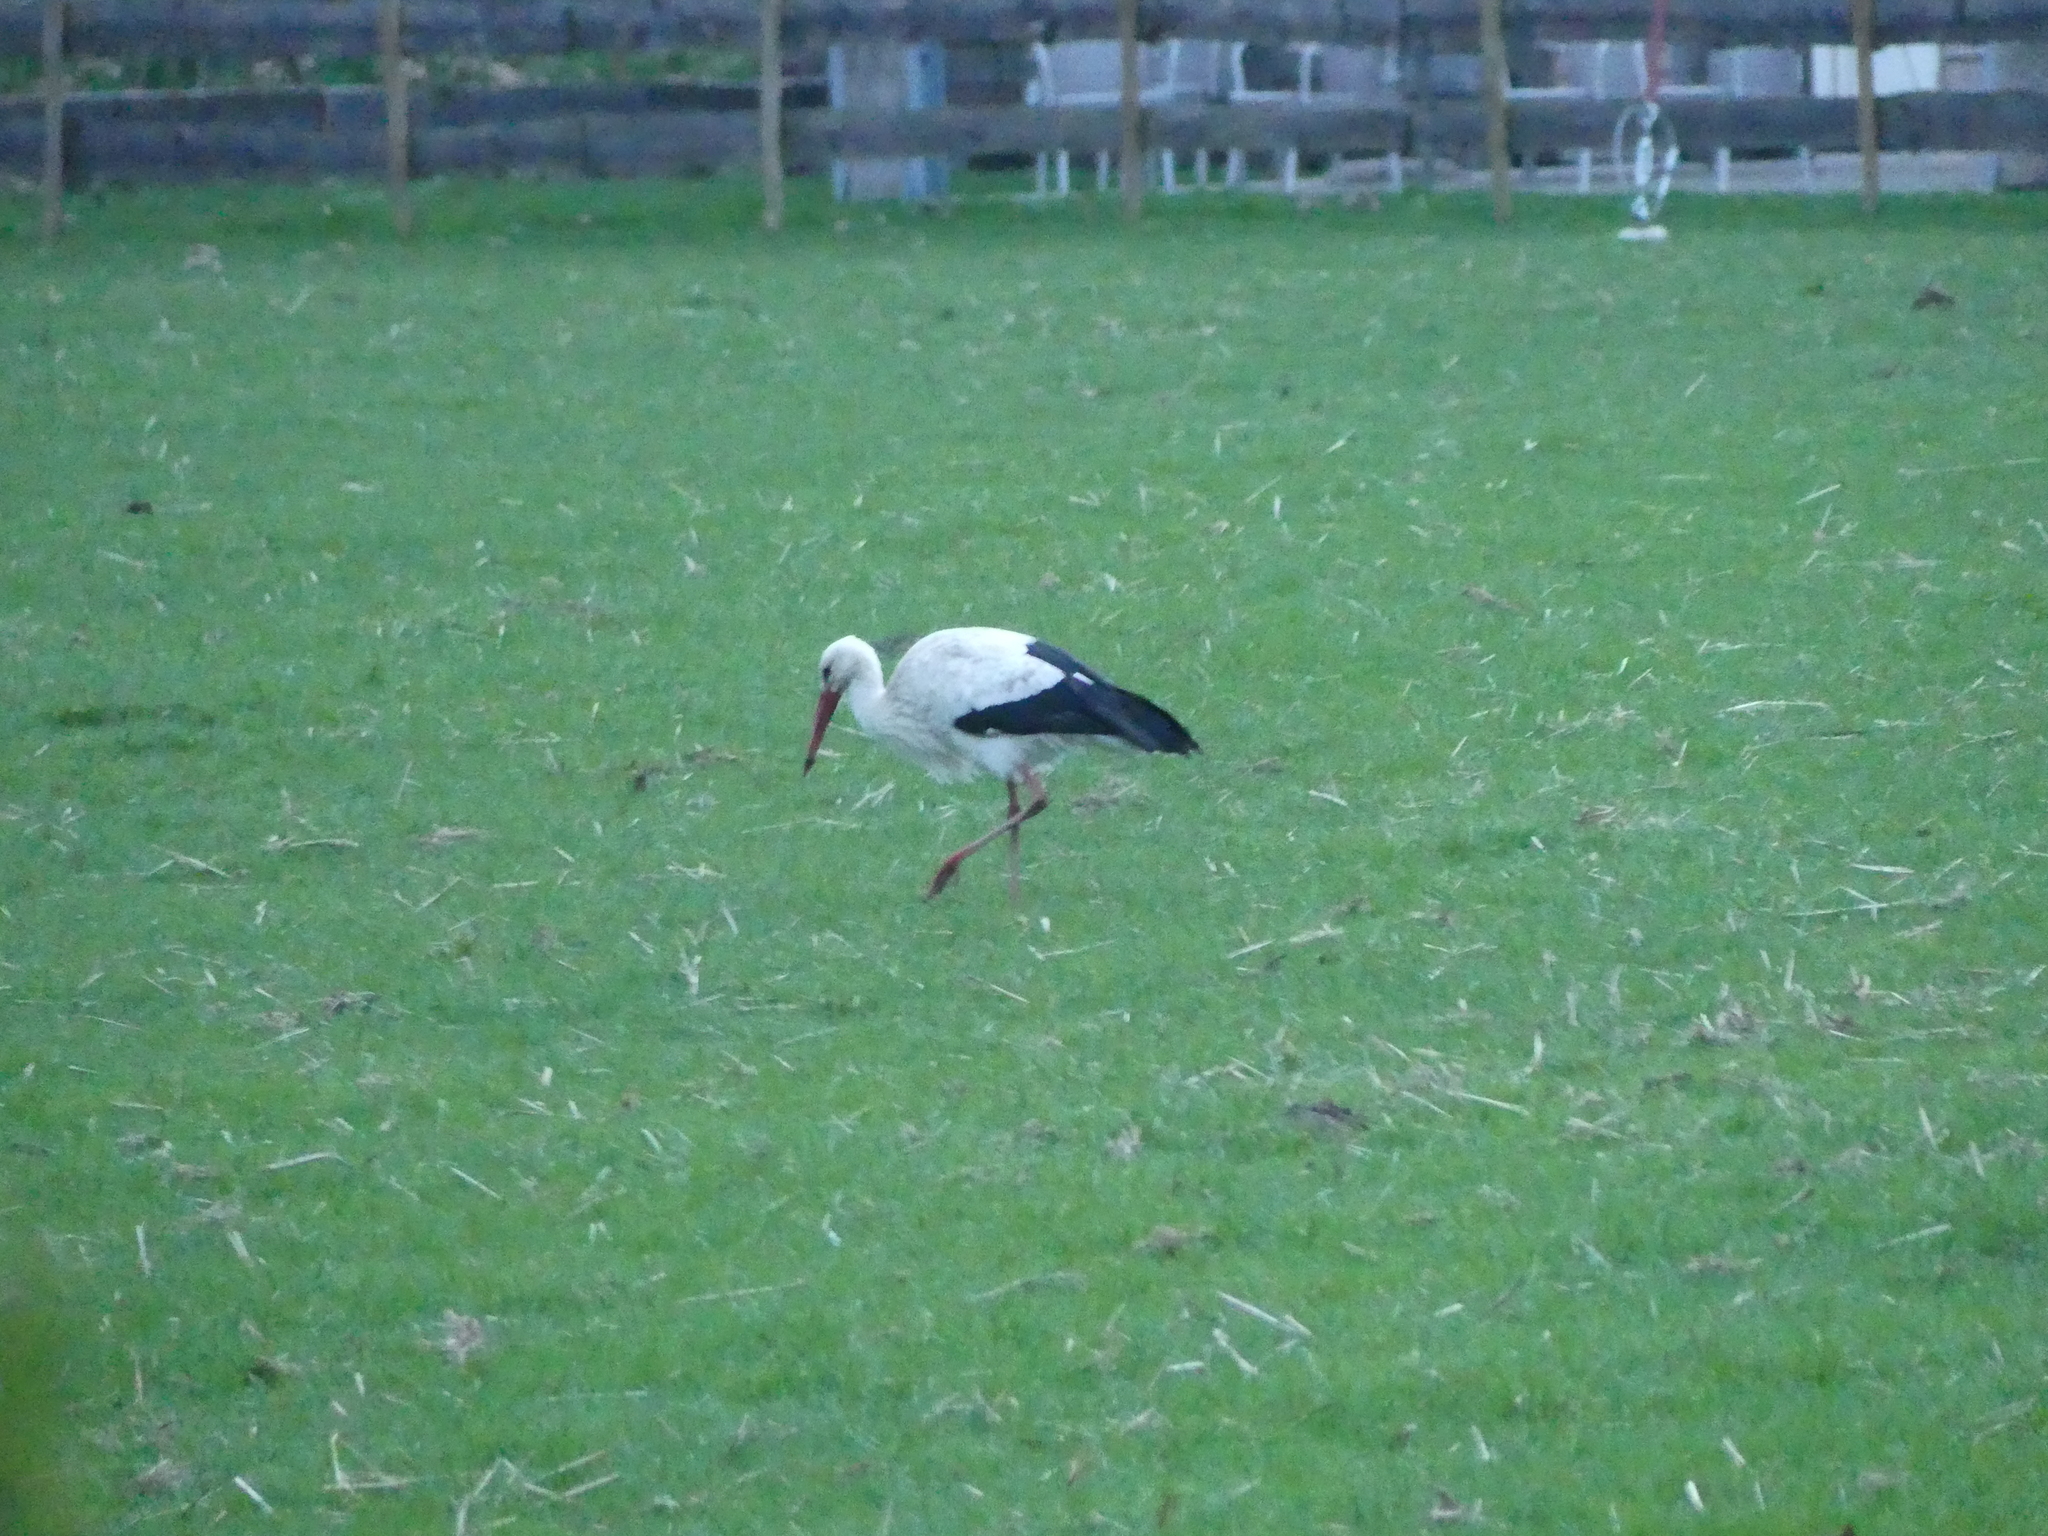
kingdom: Animalia
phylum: Chordata
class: Aves
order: Ciconiiformes
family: Ciconiidae
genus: Ciconia
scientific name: Ciconia ciconia
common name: White stork
